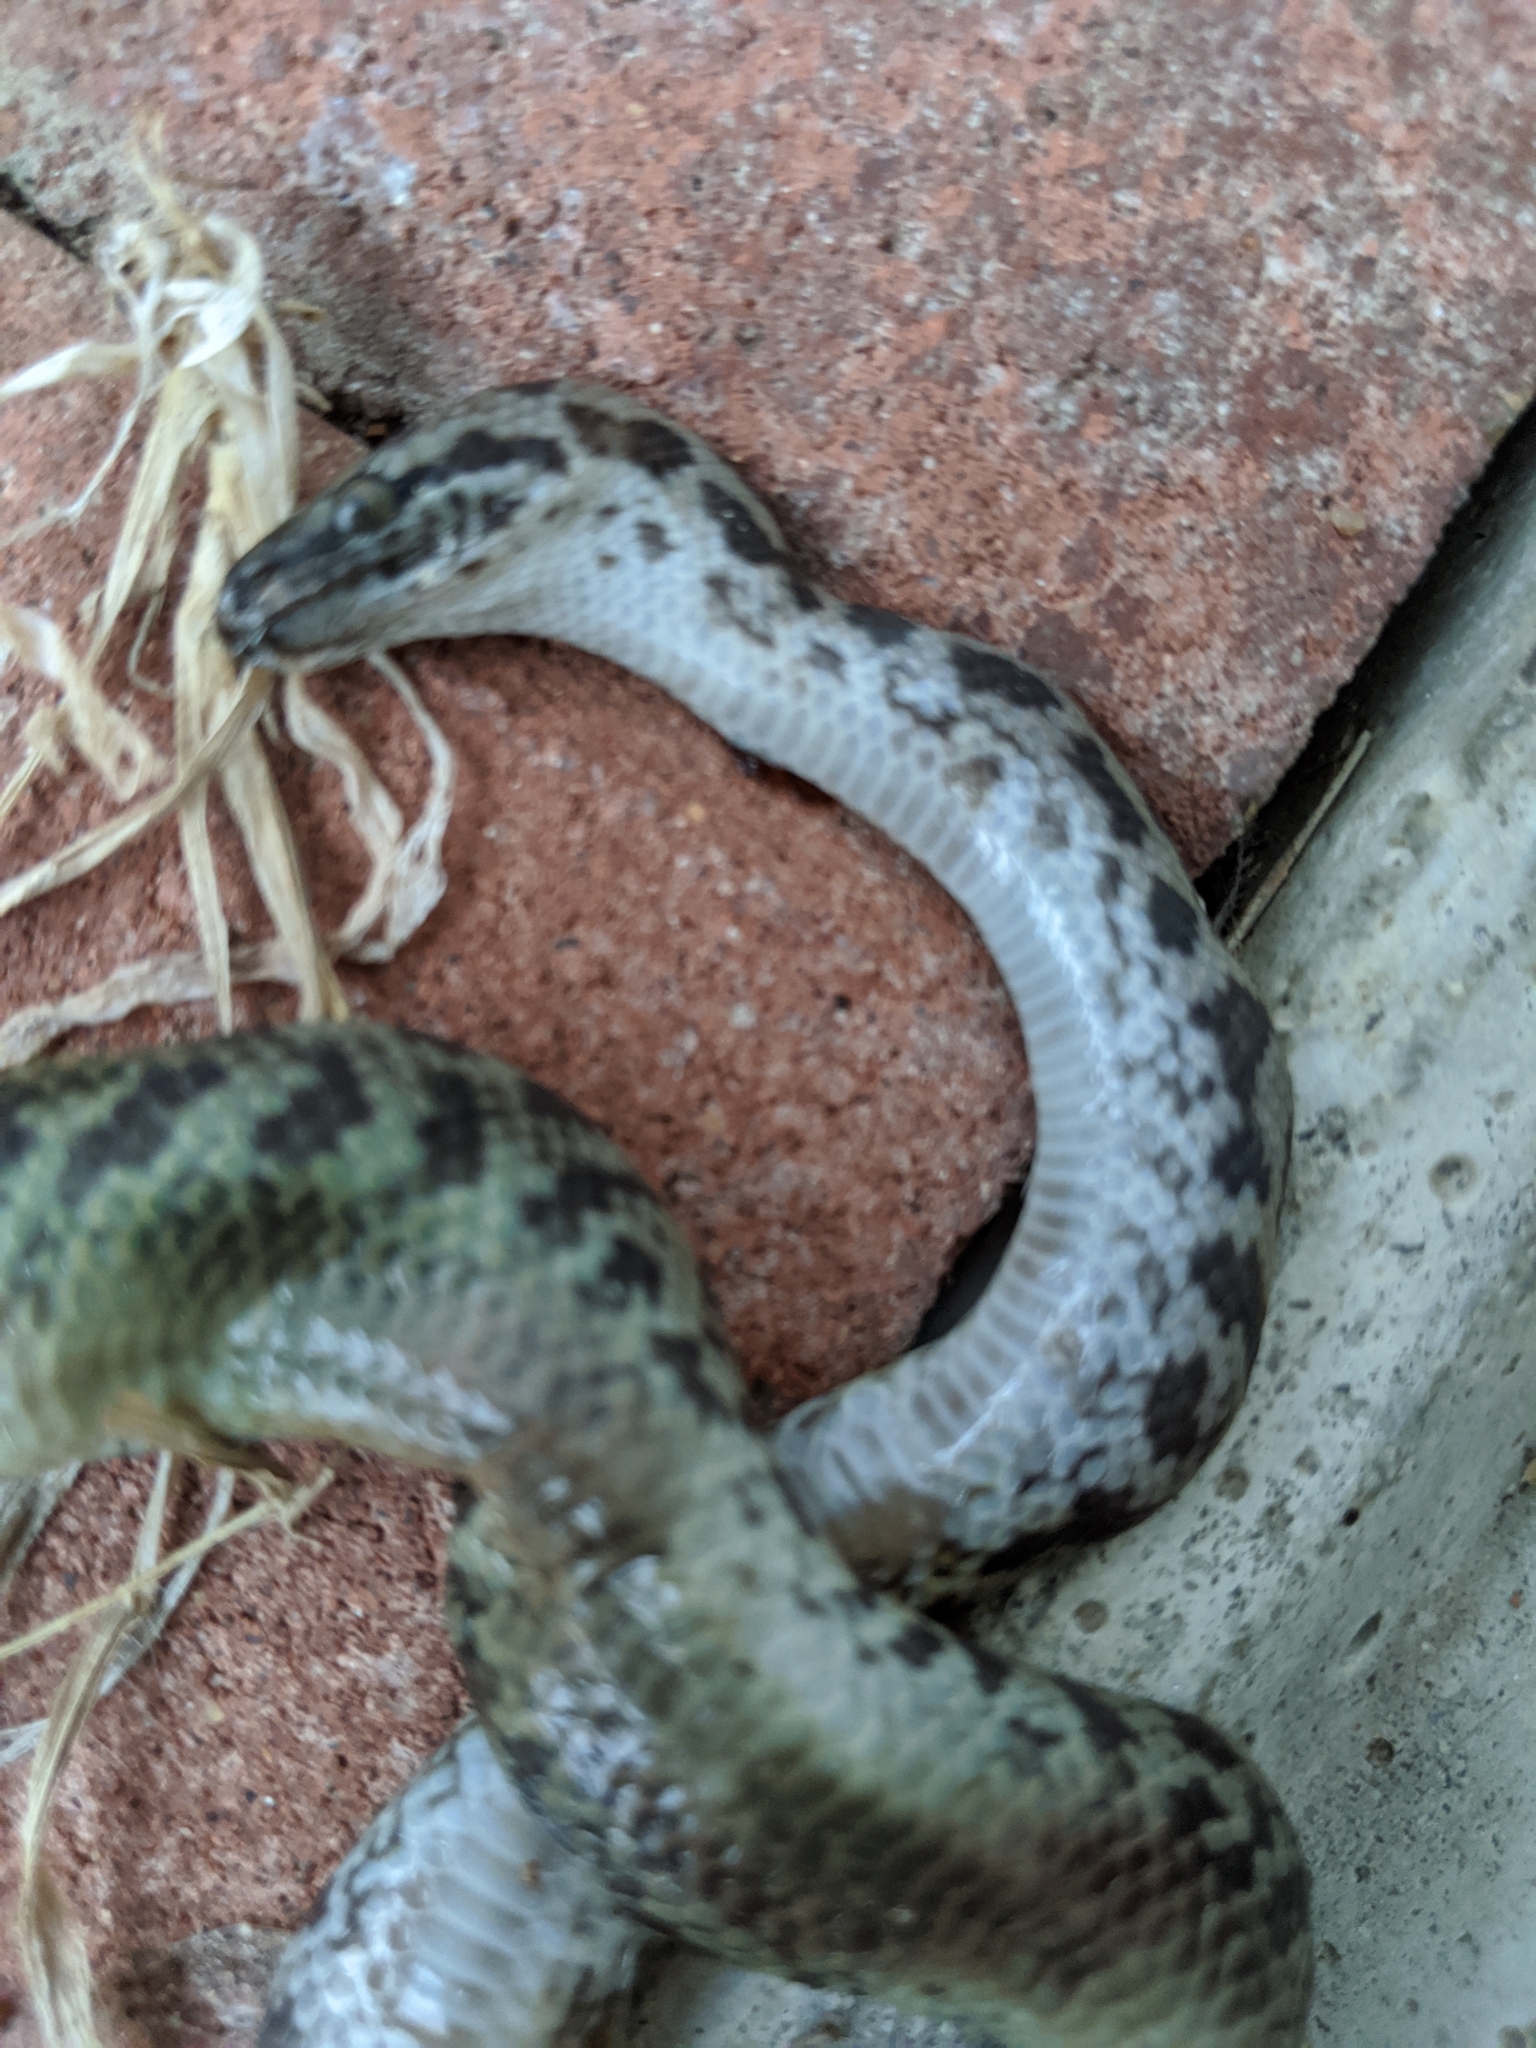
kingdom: Animalia
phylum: Chordata
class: Squamata
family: Pythonidae
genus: Antaresia
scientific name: Antaresia maculosa
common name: Eastern childrens python
